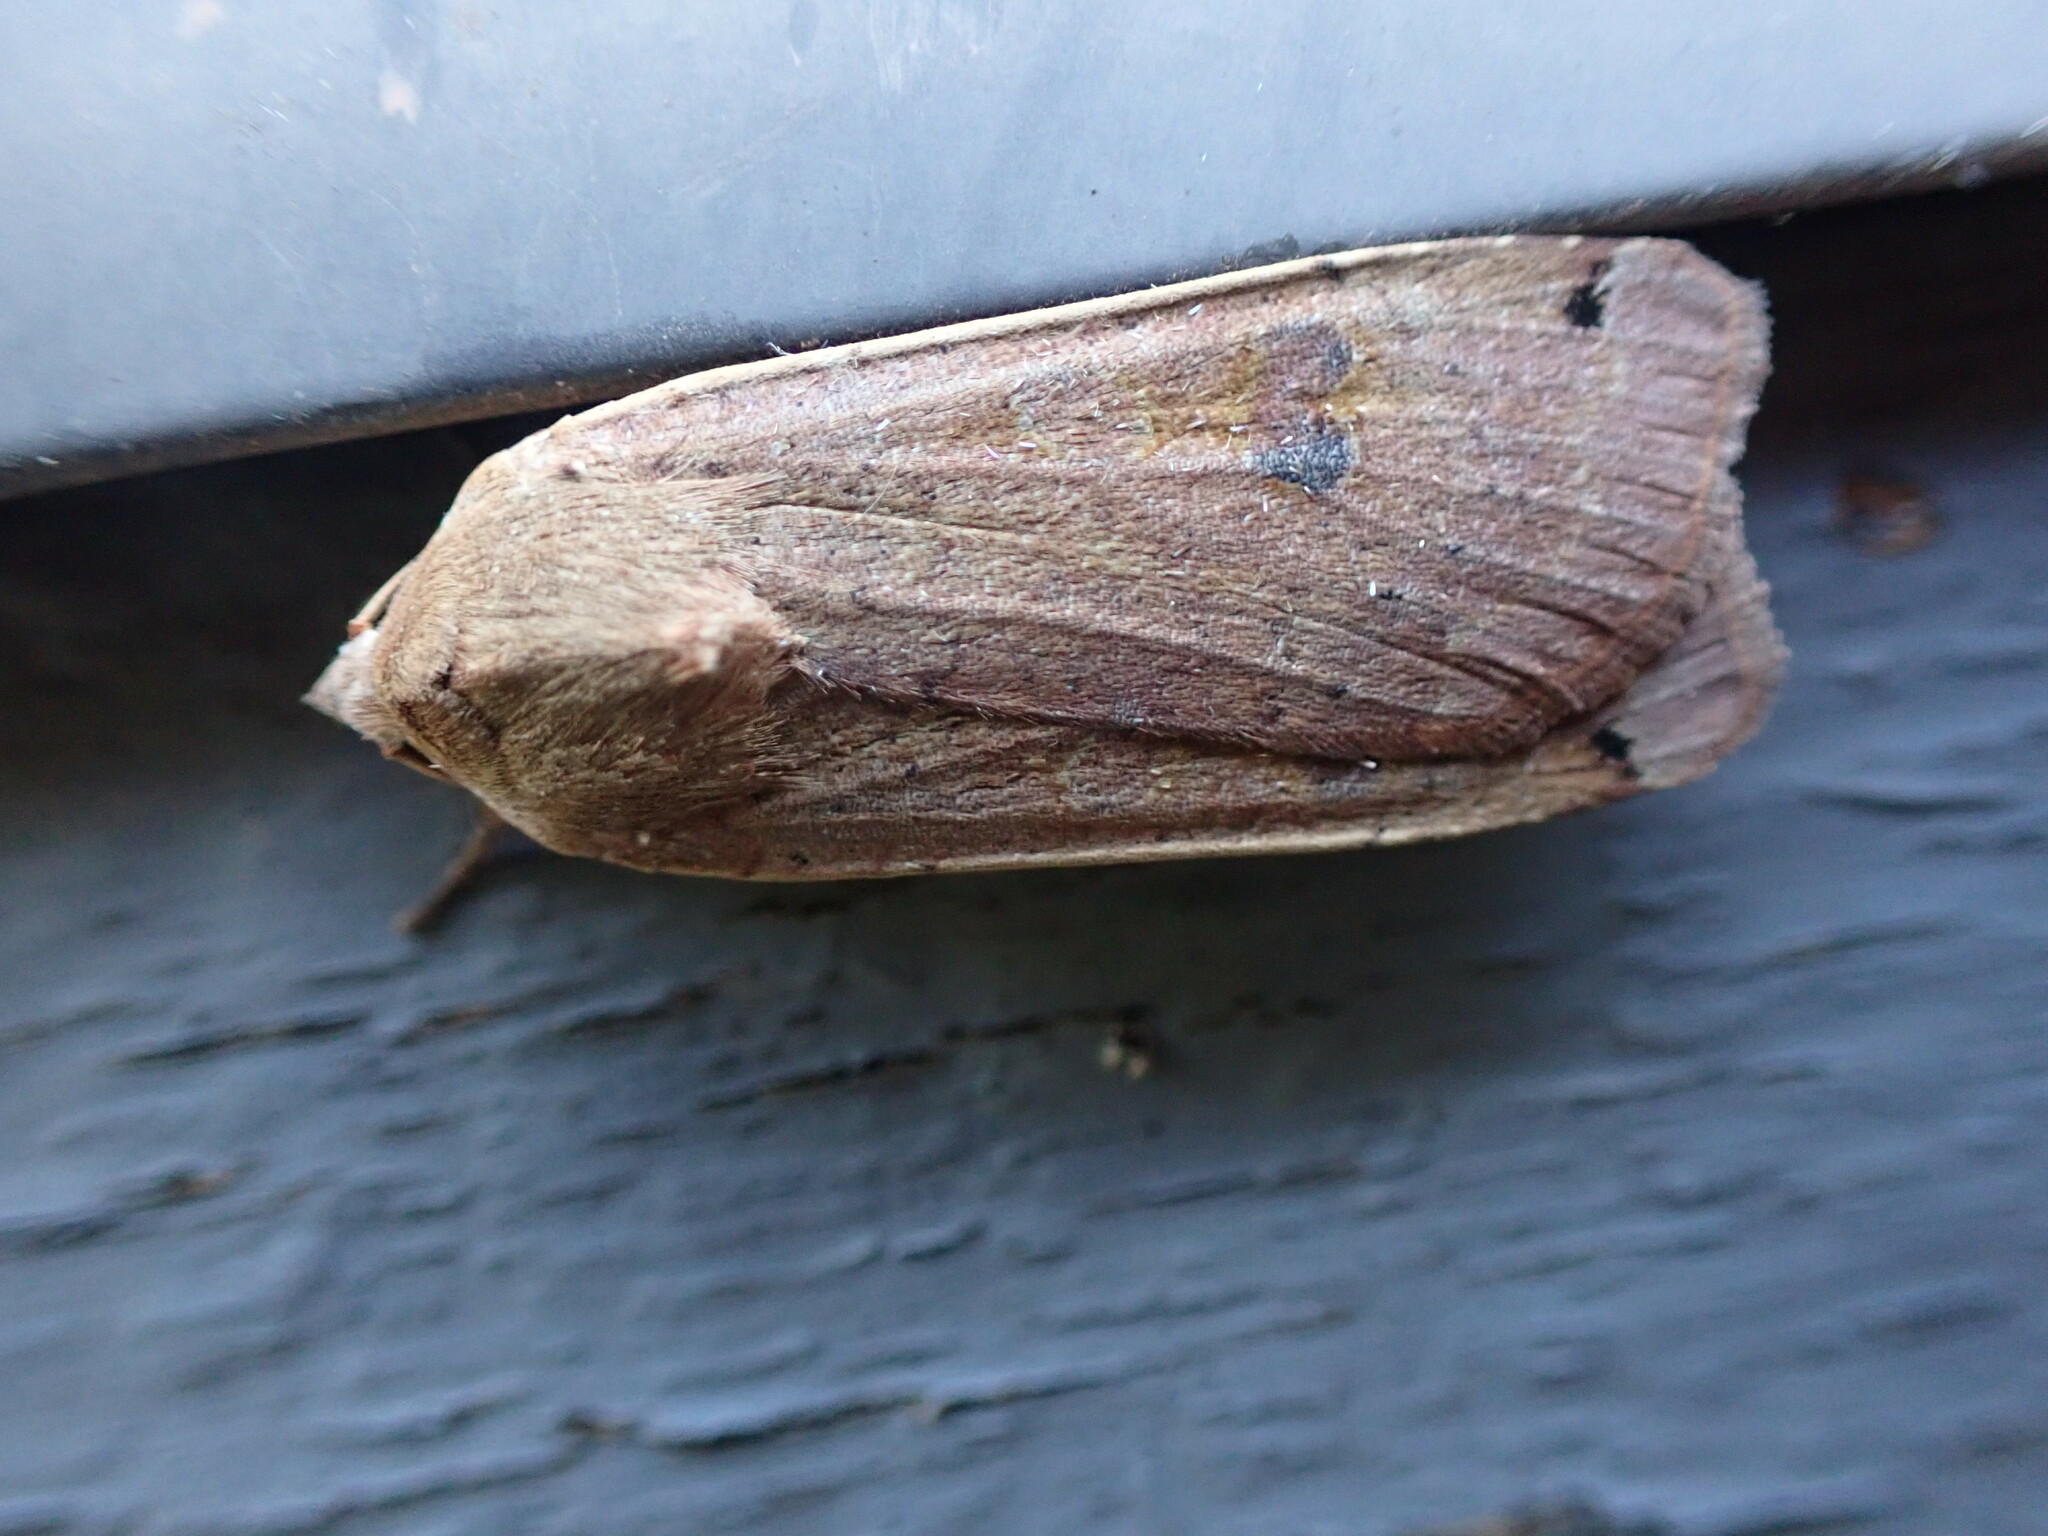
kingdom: Animalia
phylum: Arthropoda
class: Insecta
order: Lepidoptera
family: Noctuidae
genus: Noctua
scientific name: Noctua pronuba
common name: Large yellow underwing
